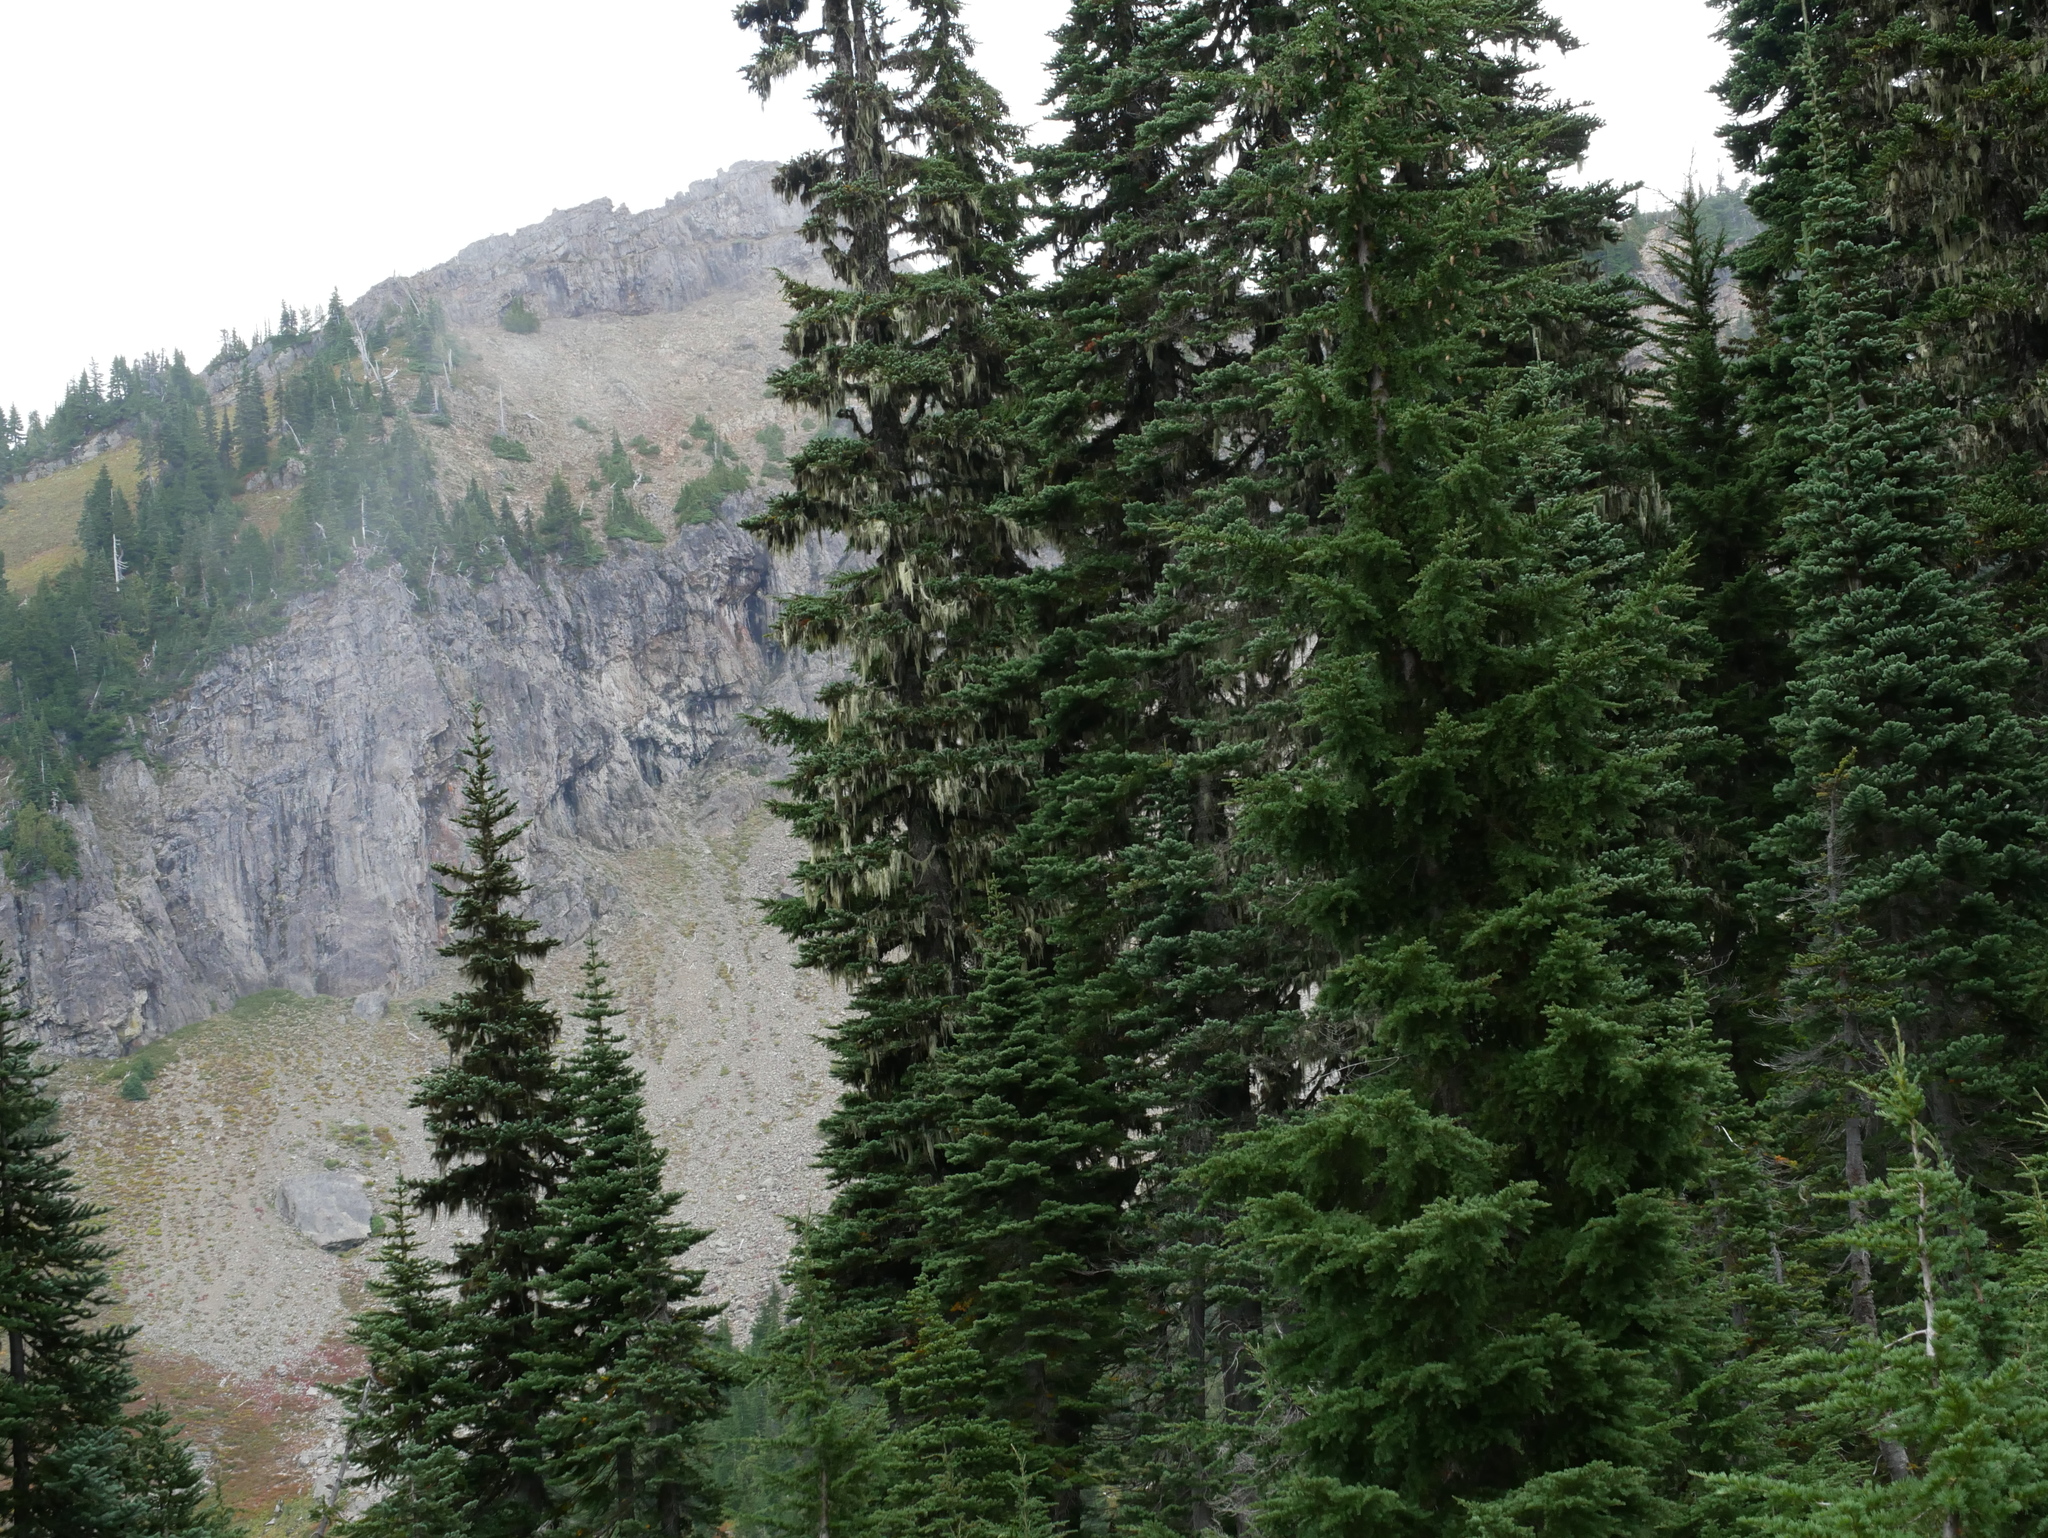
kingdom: Plantae
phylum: Tracheophyta
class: Pinopsida
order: Pinales
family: Pinaceae
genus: Tsuga
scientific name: Tsuga mertensiana
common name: Mountain hemlock
